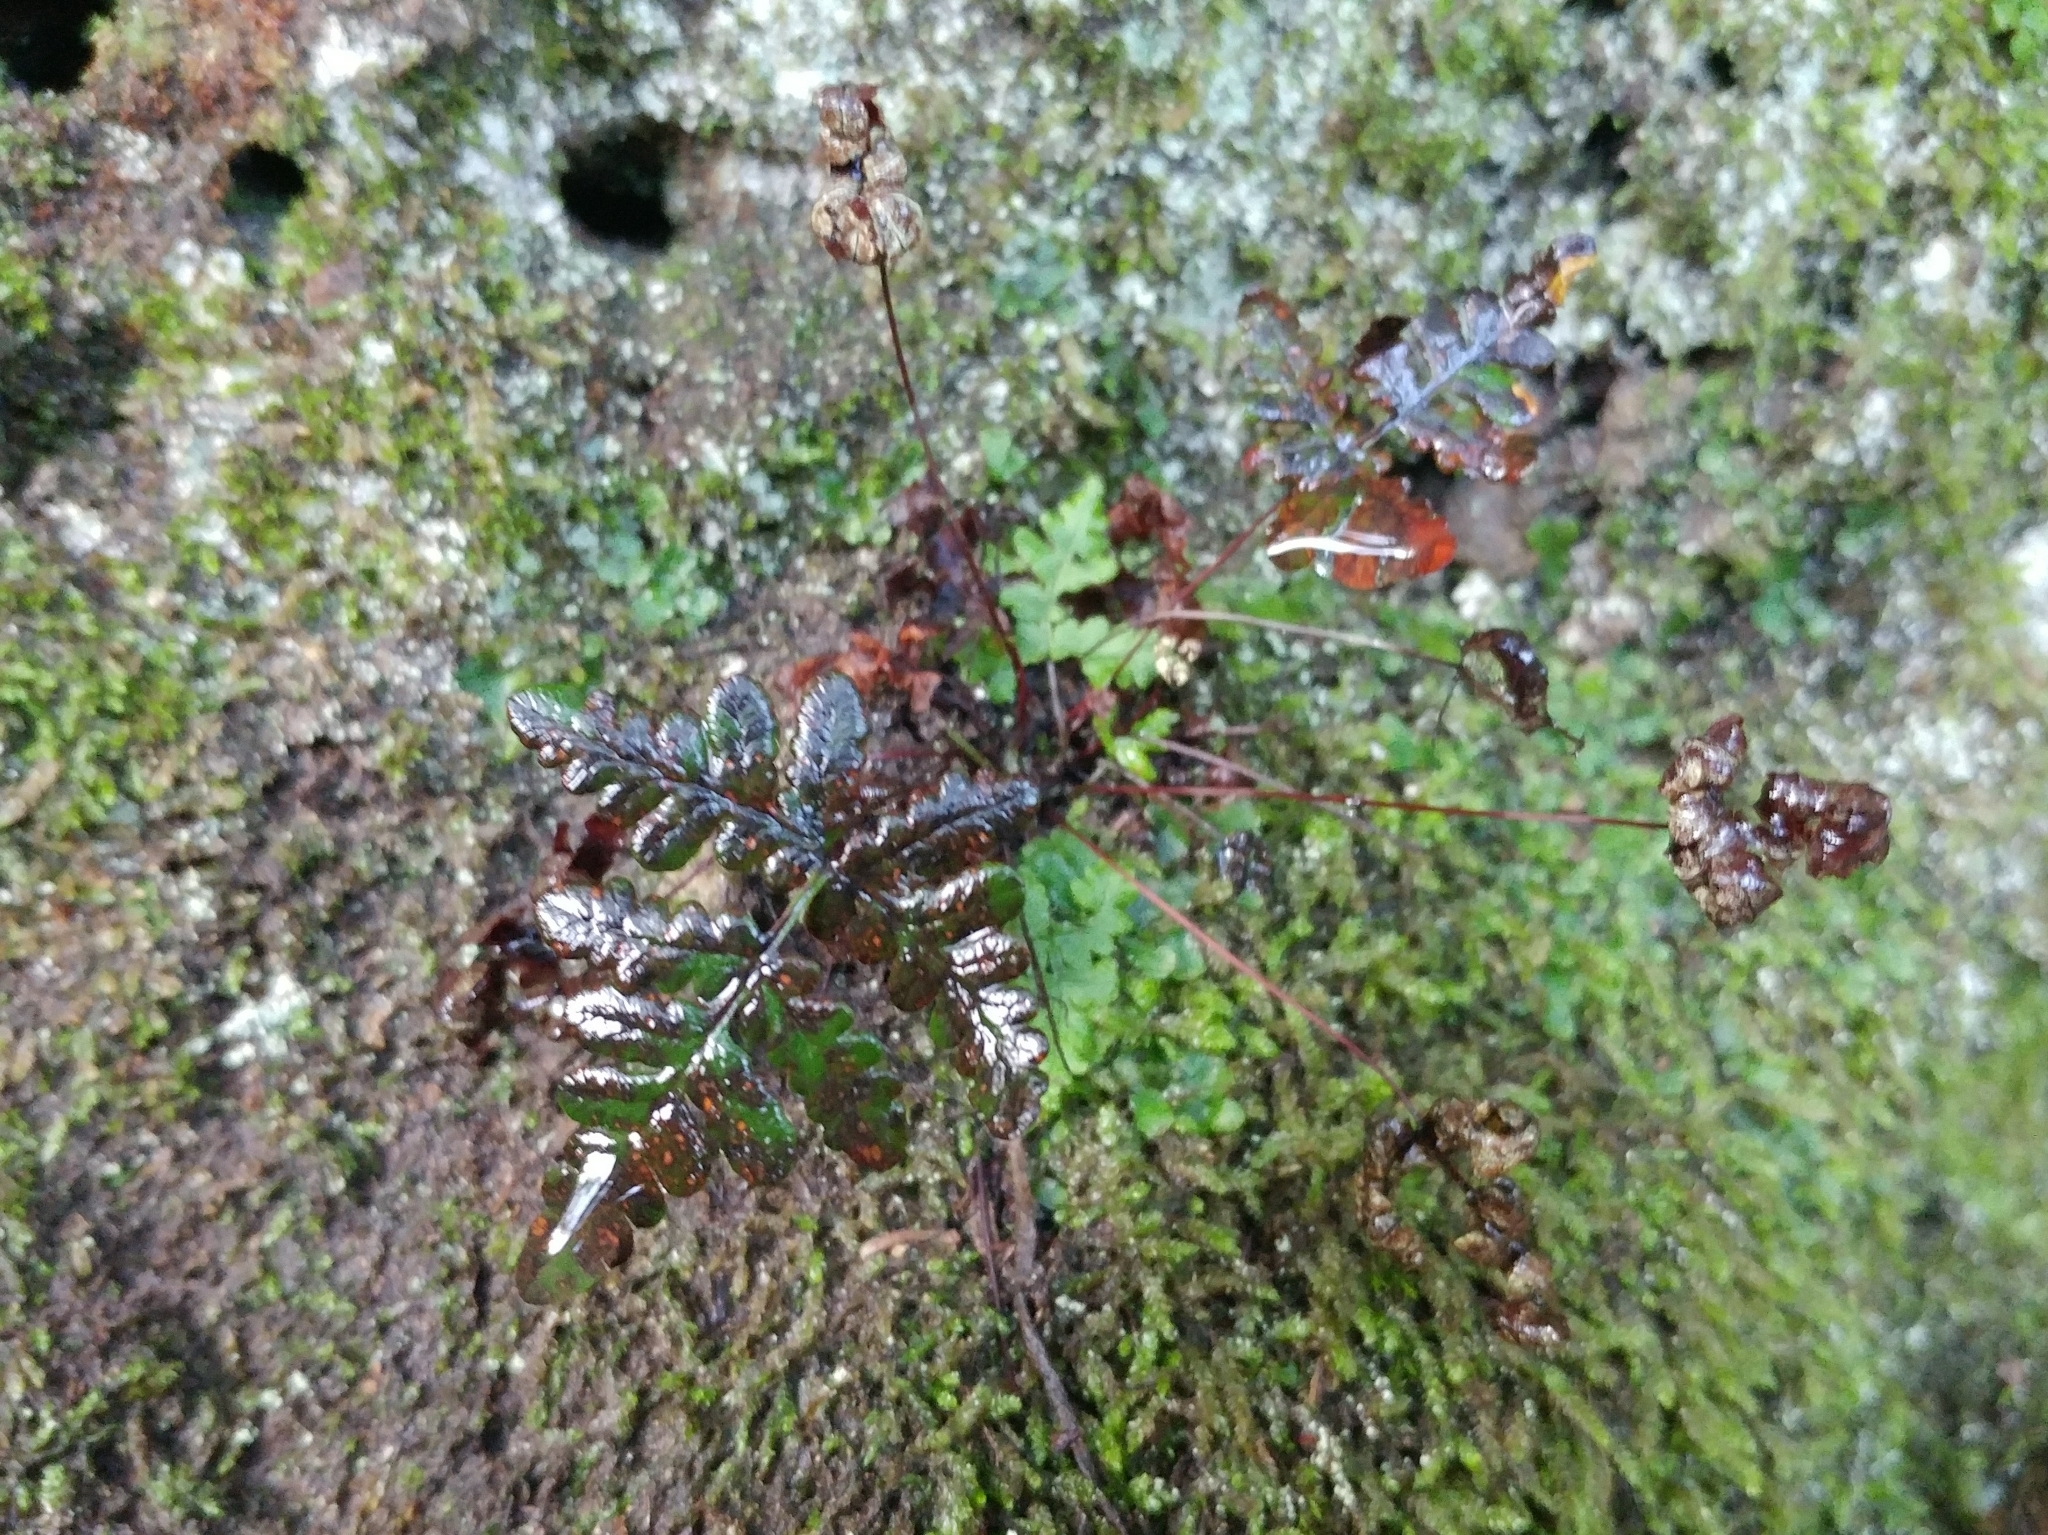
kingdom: Plantae
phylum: Tracheophyta
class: Polypodiopsida
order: Polypodiales
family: Pteridaceae
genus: Pentagramma
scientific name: Pentagramma triangularis
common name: Gold fern
